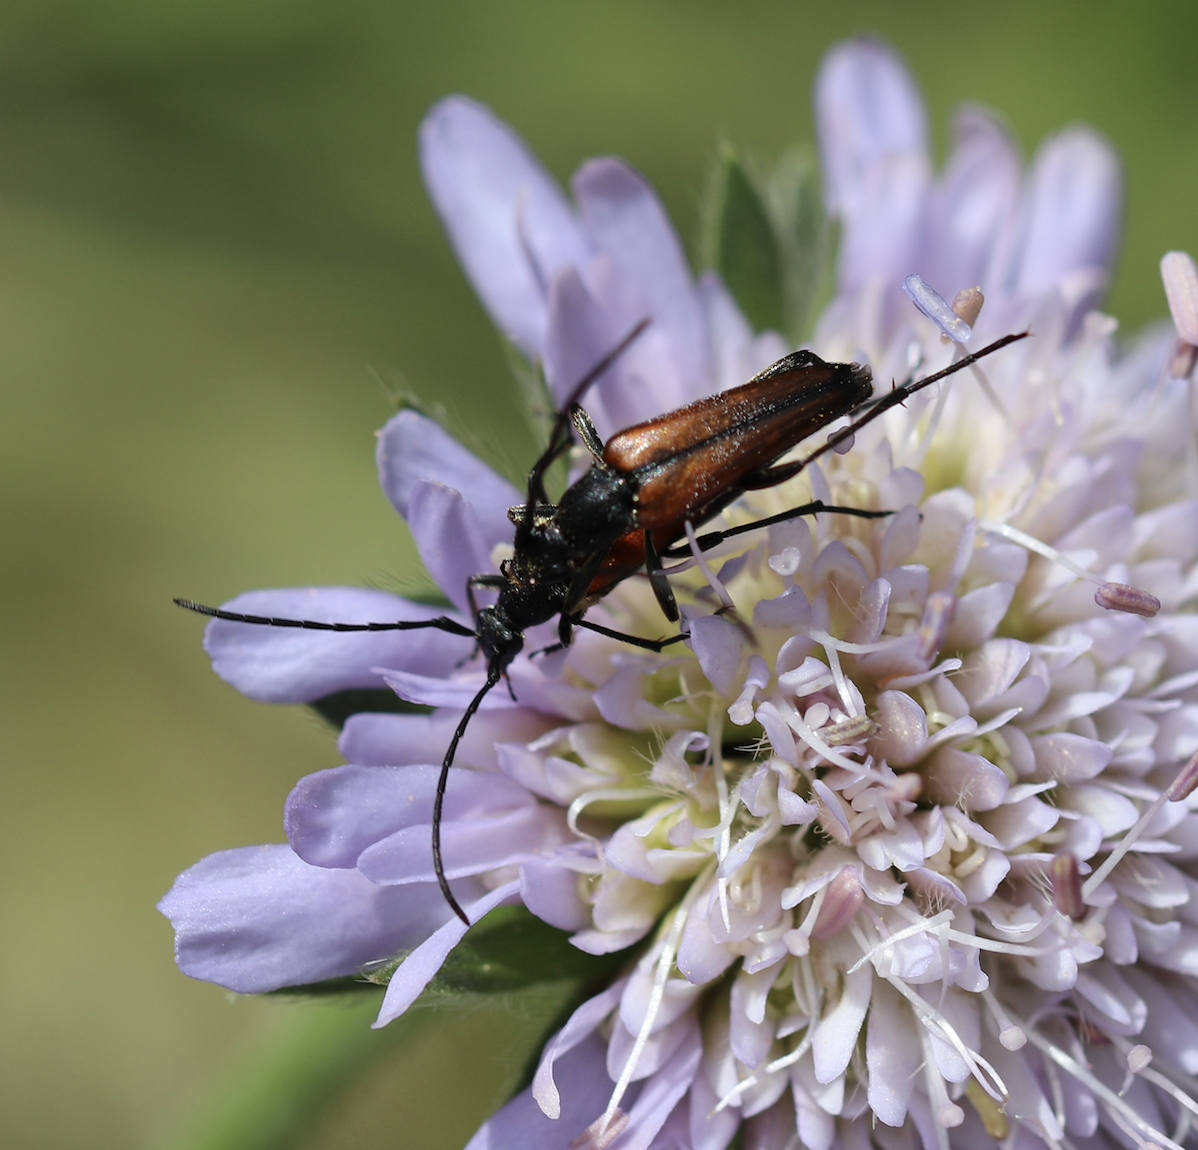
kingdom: Animalia
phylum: Arthropoda
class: Insecta
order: Coleoptera
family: Cerambycidae
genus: Stenurella
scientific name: Stenurella melanura
